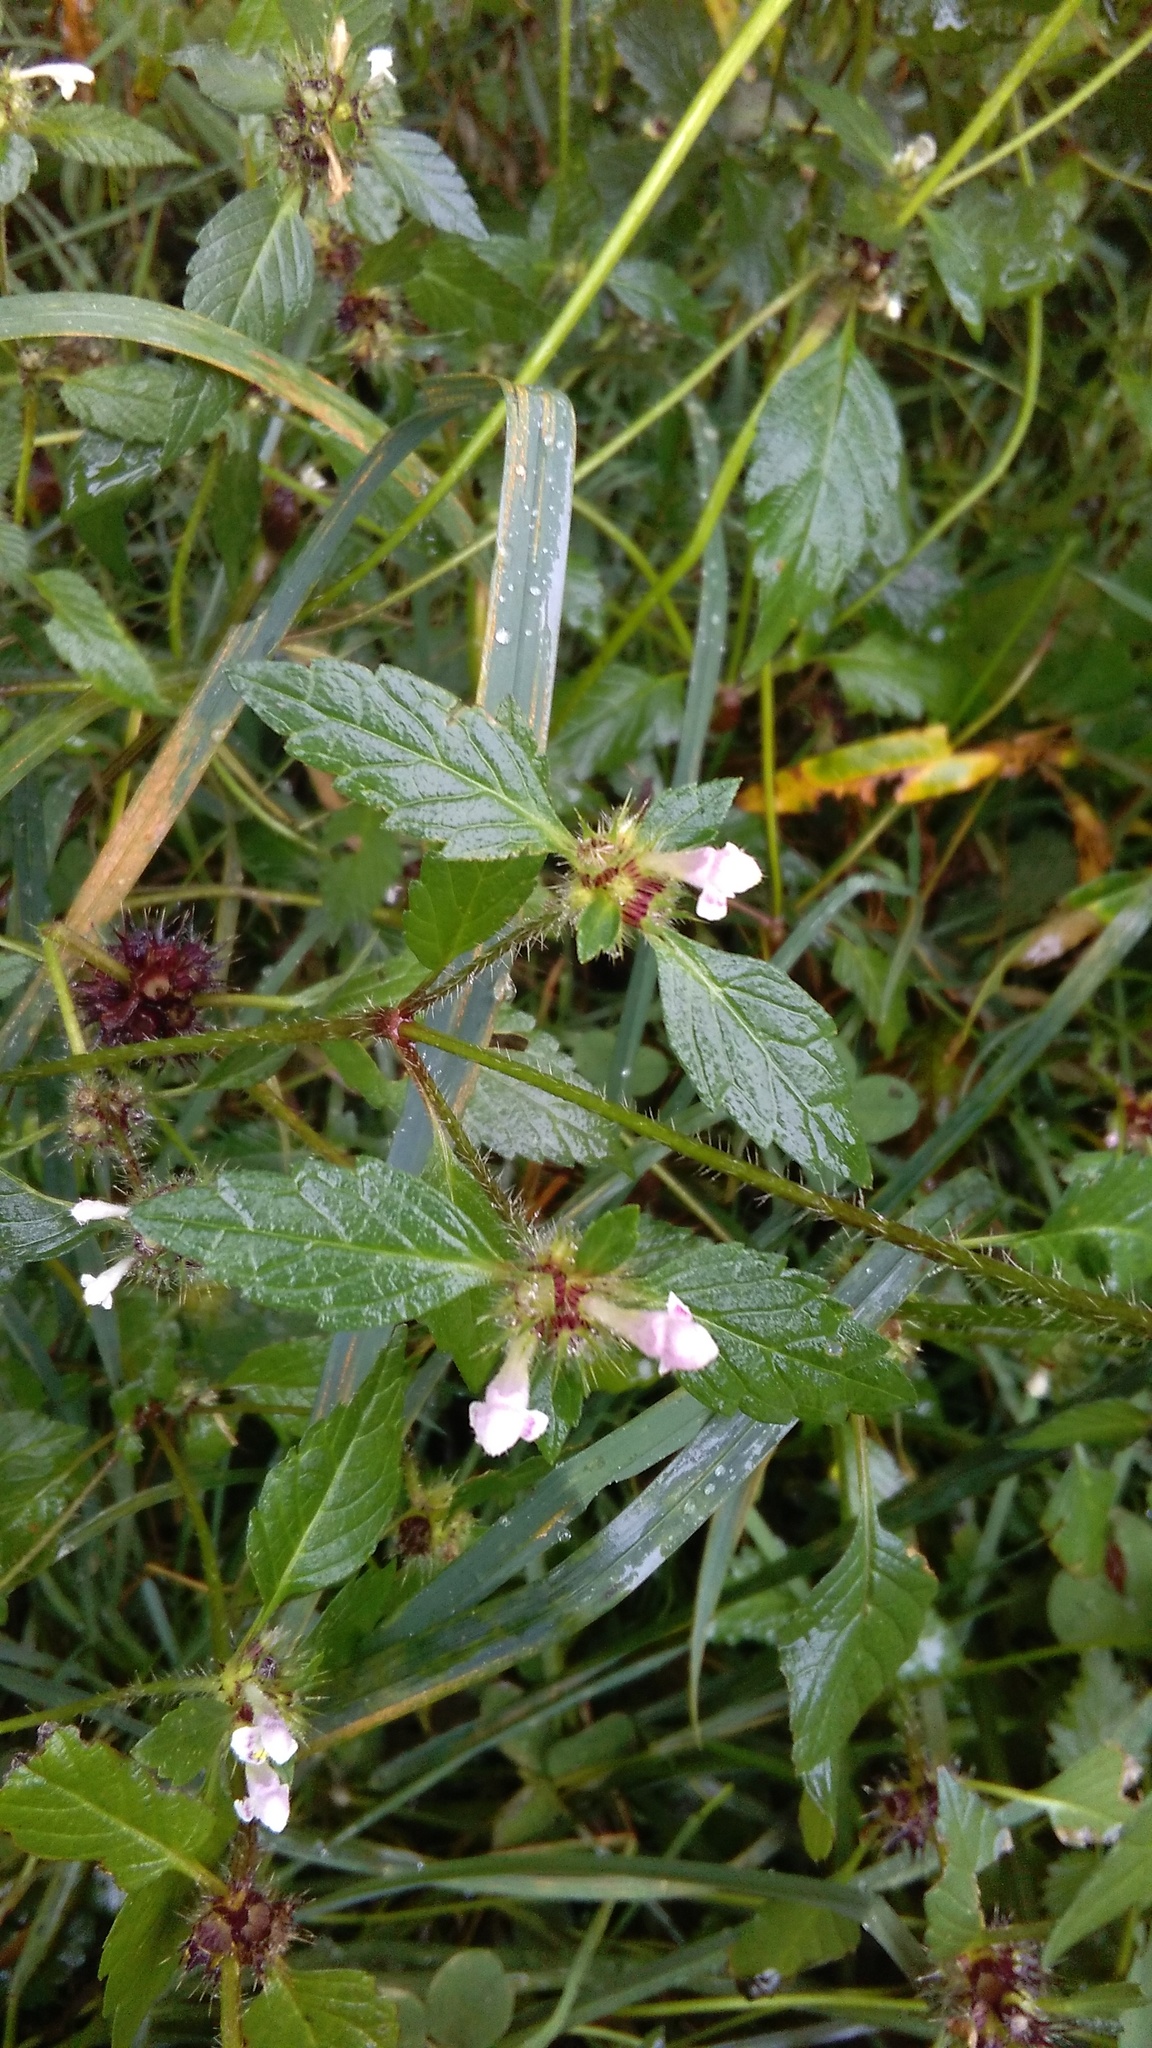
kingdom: Plantae
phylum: Tracheophyta
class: Magnoliopsida
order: Lamiales
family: Lamiaceae
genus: Galeopsis
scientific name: Galeopsis tetrahit
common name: Common hemp-nettle
